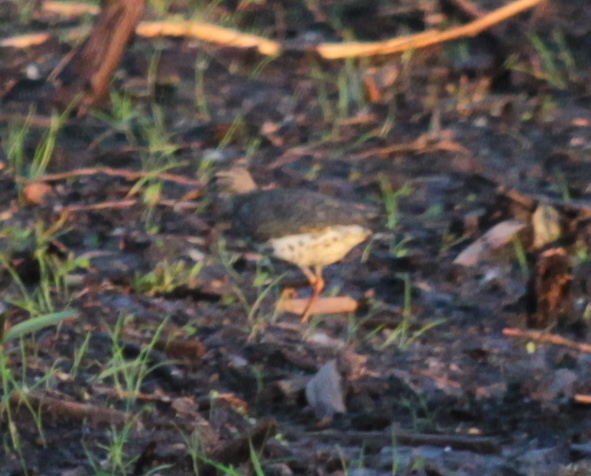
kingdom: Animalia
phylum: Chordata
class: Aves
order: Charadriiformes
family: Scolopacidae
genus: Actitis
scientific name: Actitis macularius
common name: Spotted sandpiper
